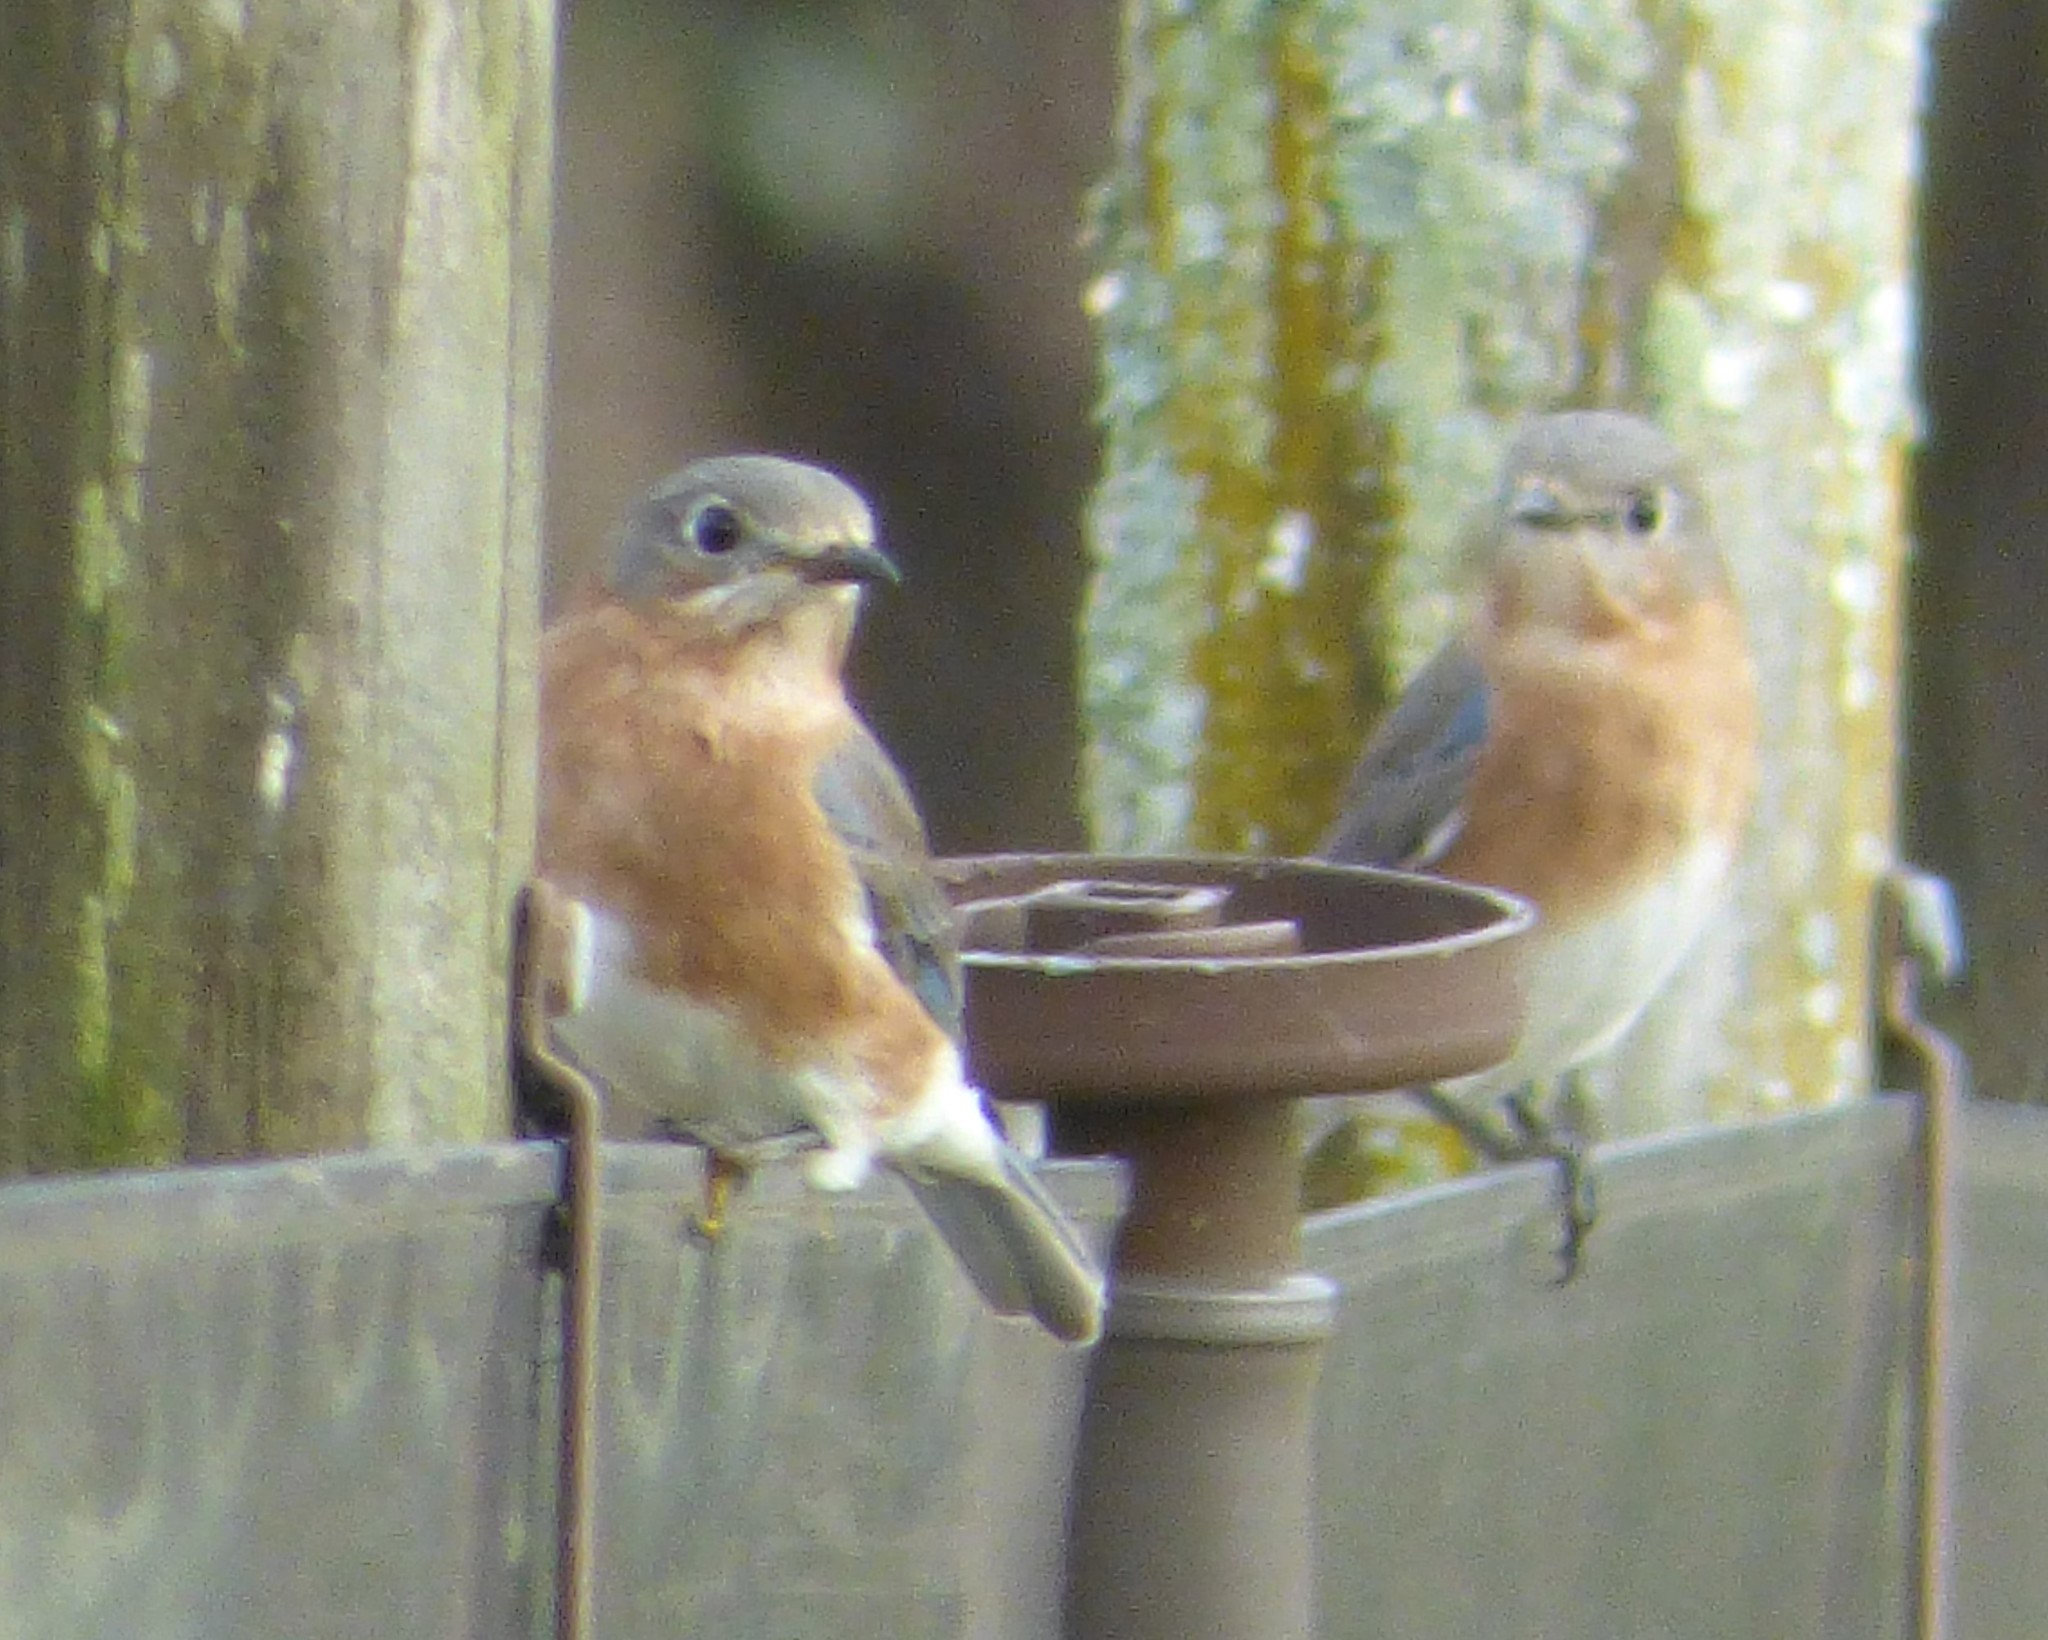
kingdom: Animalia
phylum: Chordata
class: Aves
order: Passeriformes
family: Turdidae
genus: Sialia
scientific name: Sialia sialis
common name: Eastern bluebird
